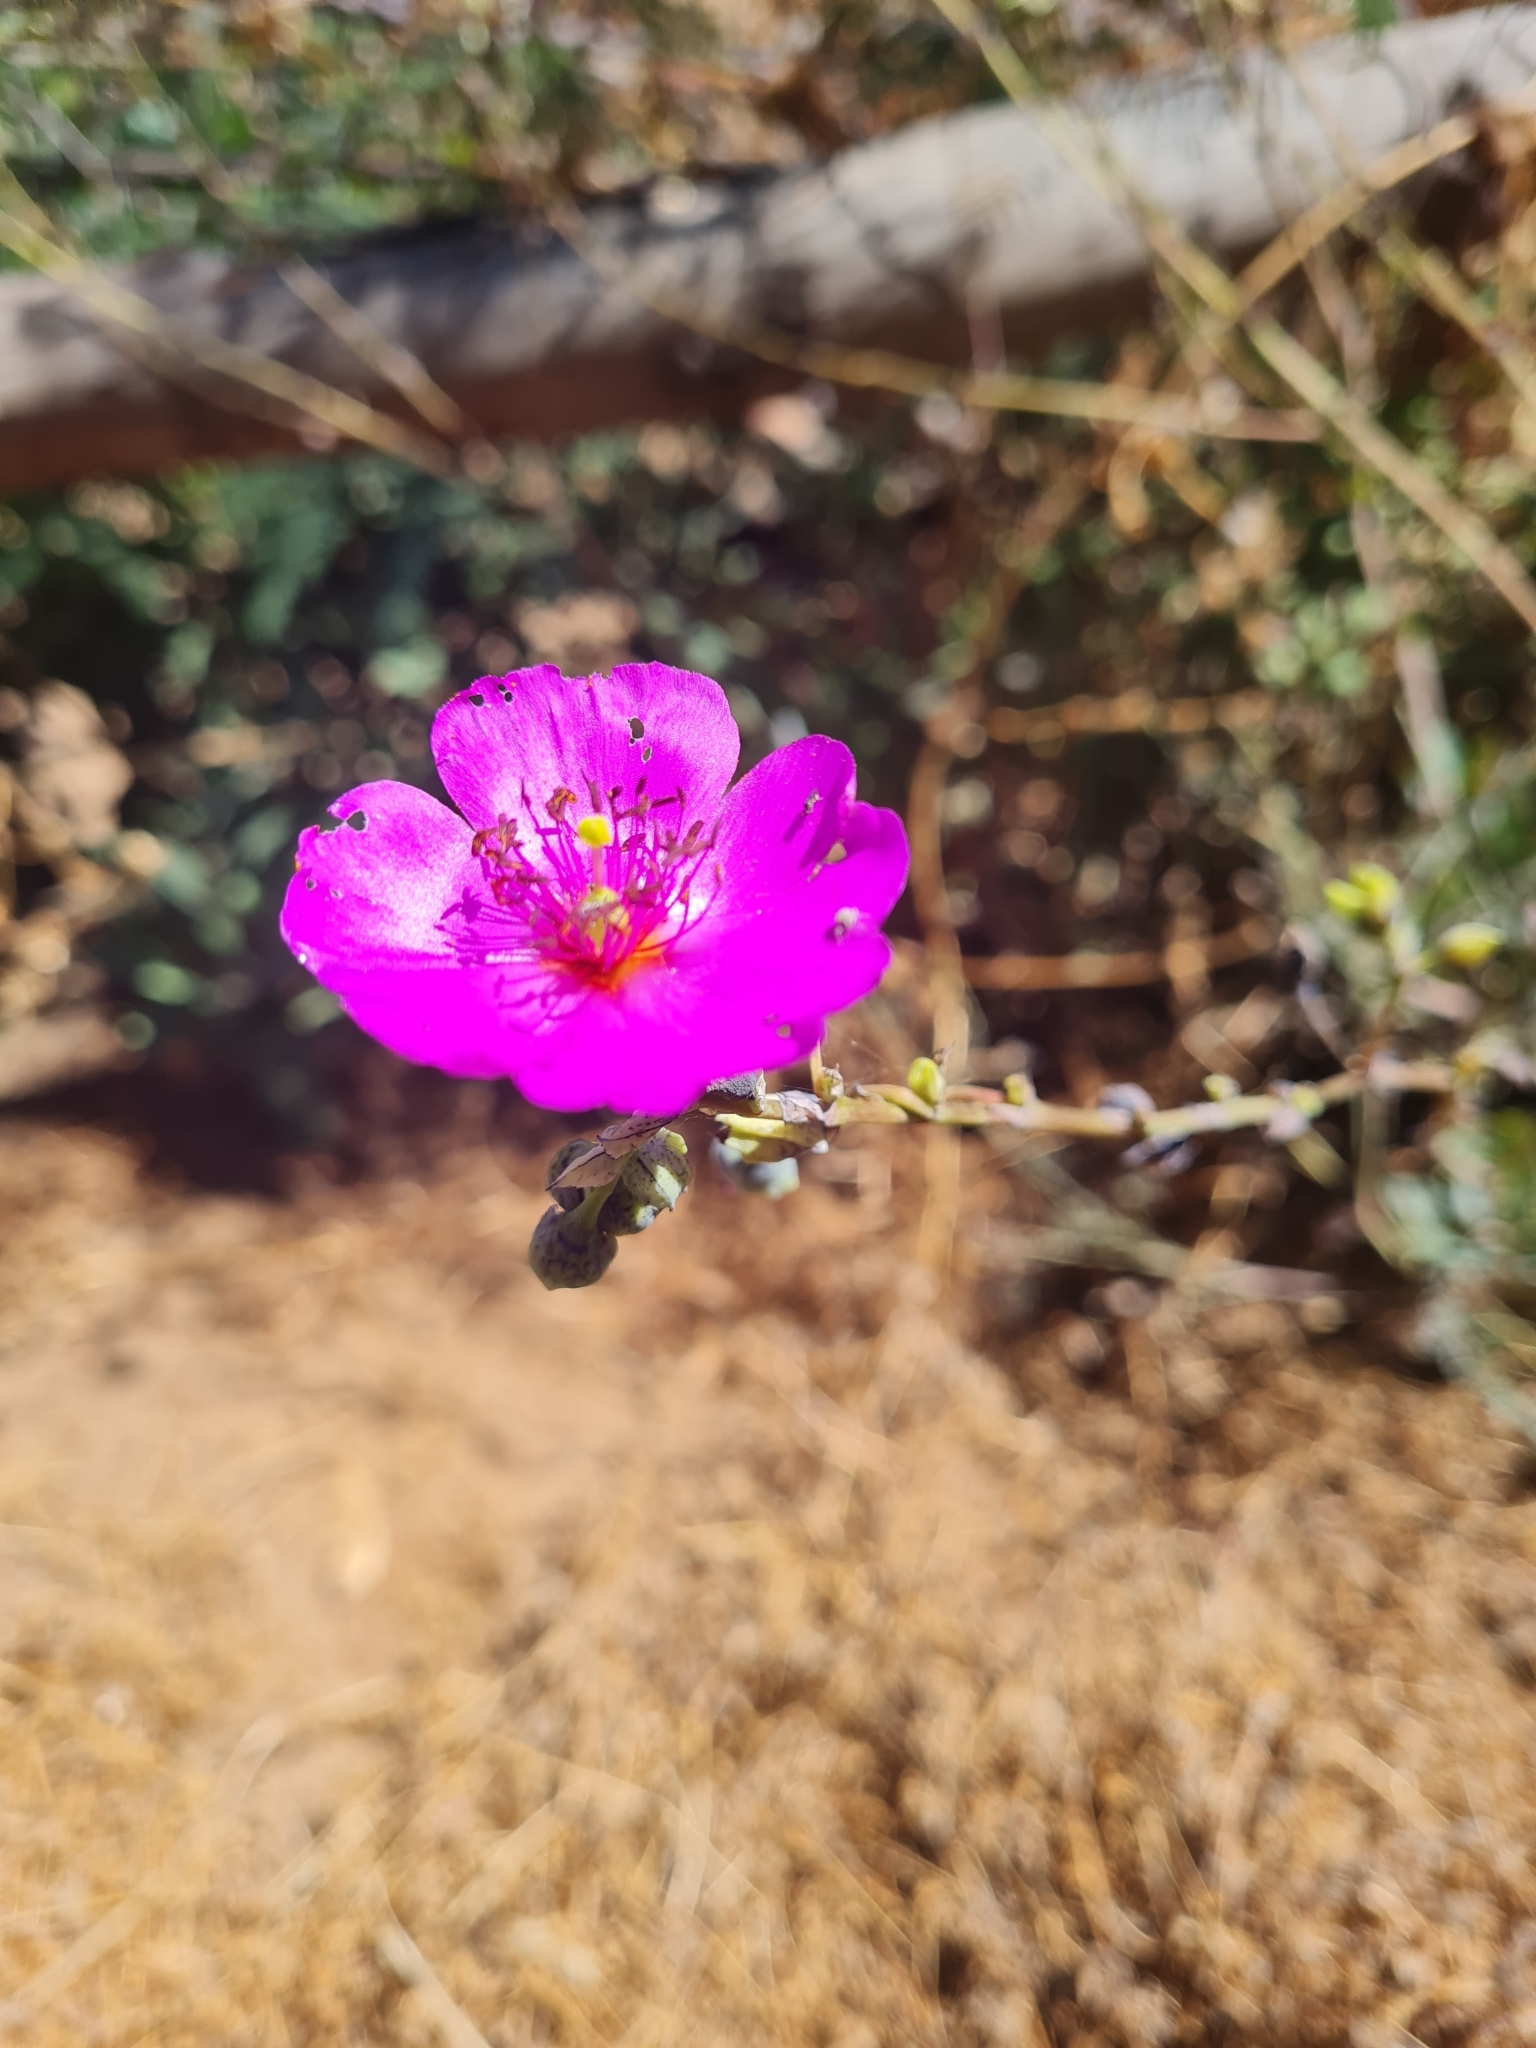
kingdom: Plantae
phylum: Tracheophyta
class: Magnoliopsida
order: Caryophyllales
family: Montiaceae
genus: Cistanthe
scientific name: Cistanthe grandiflora
